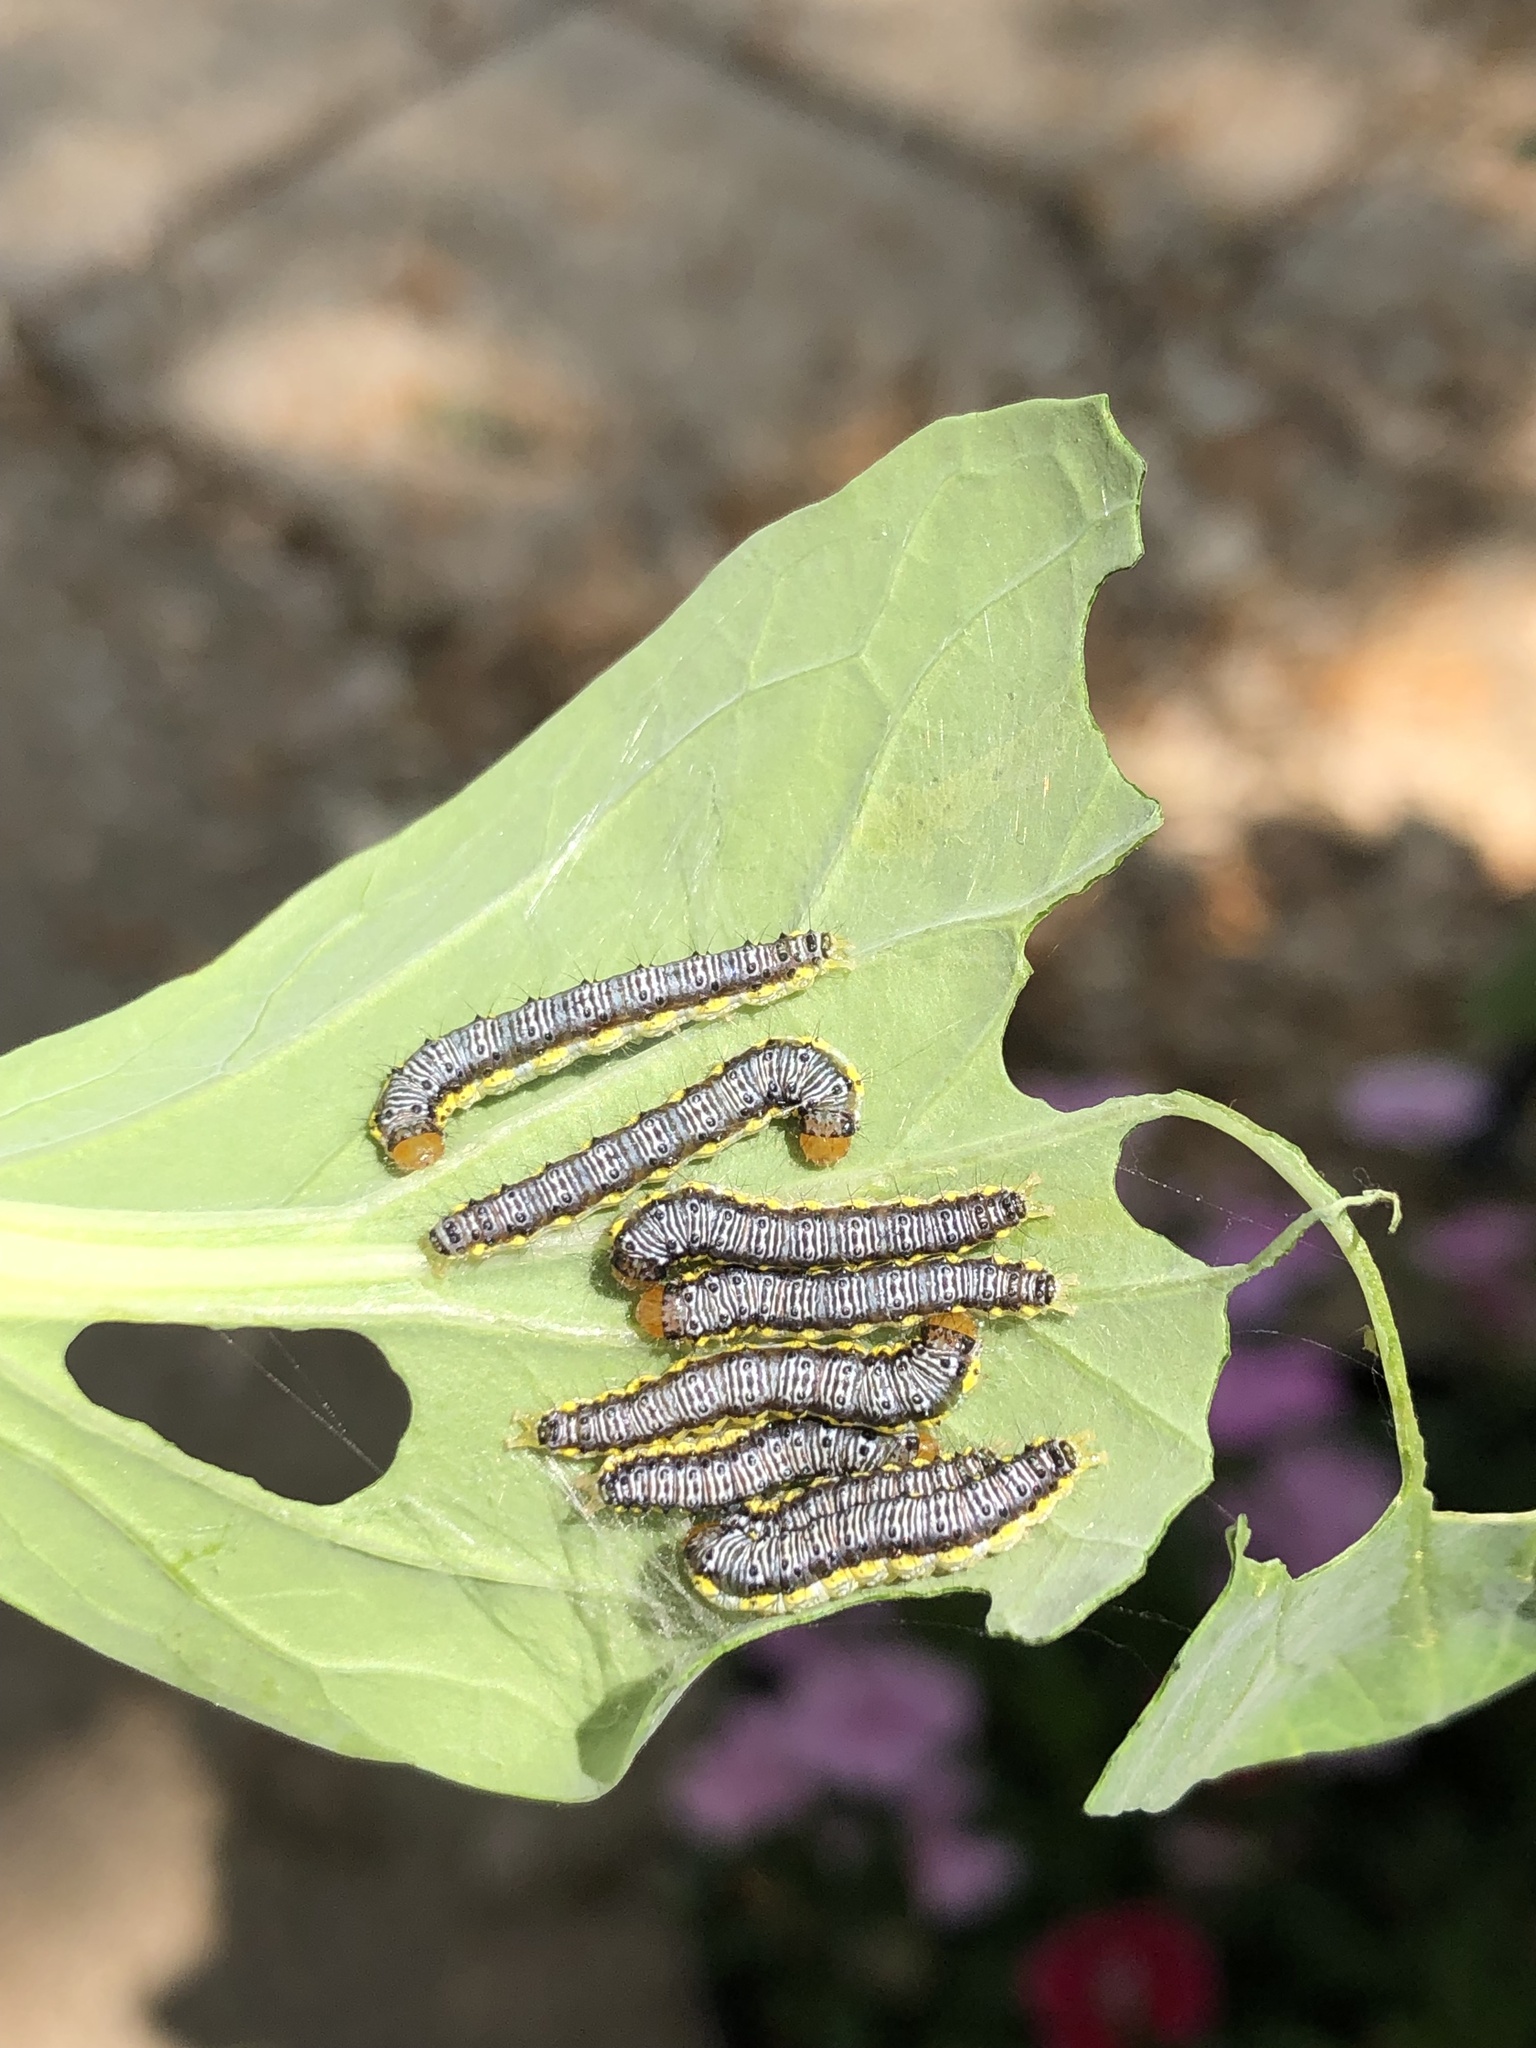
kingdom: Animalia
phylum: Arthropoda
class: Insecta
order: Lepidoptera
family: Crambidae
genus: Evergestis
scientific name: Evergestis rimosalis
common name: Cross-striped cabbageworm moth
